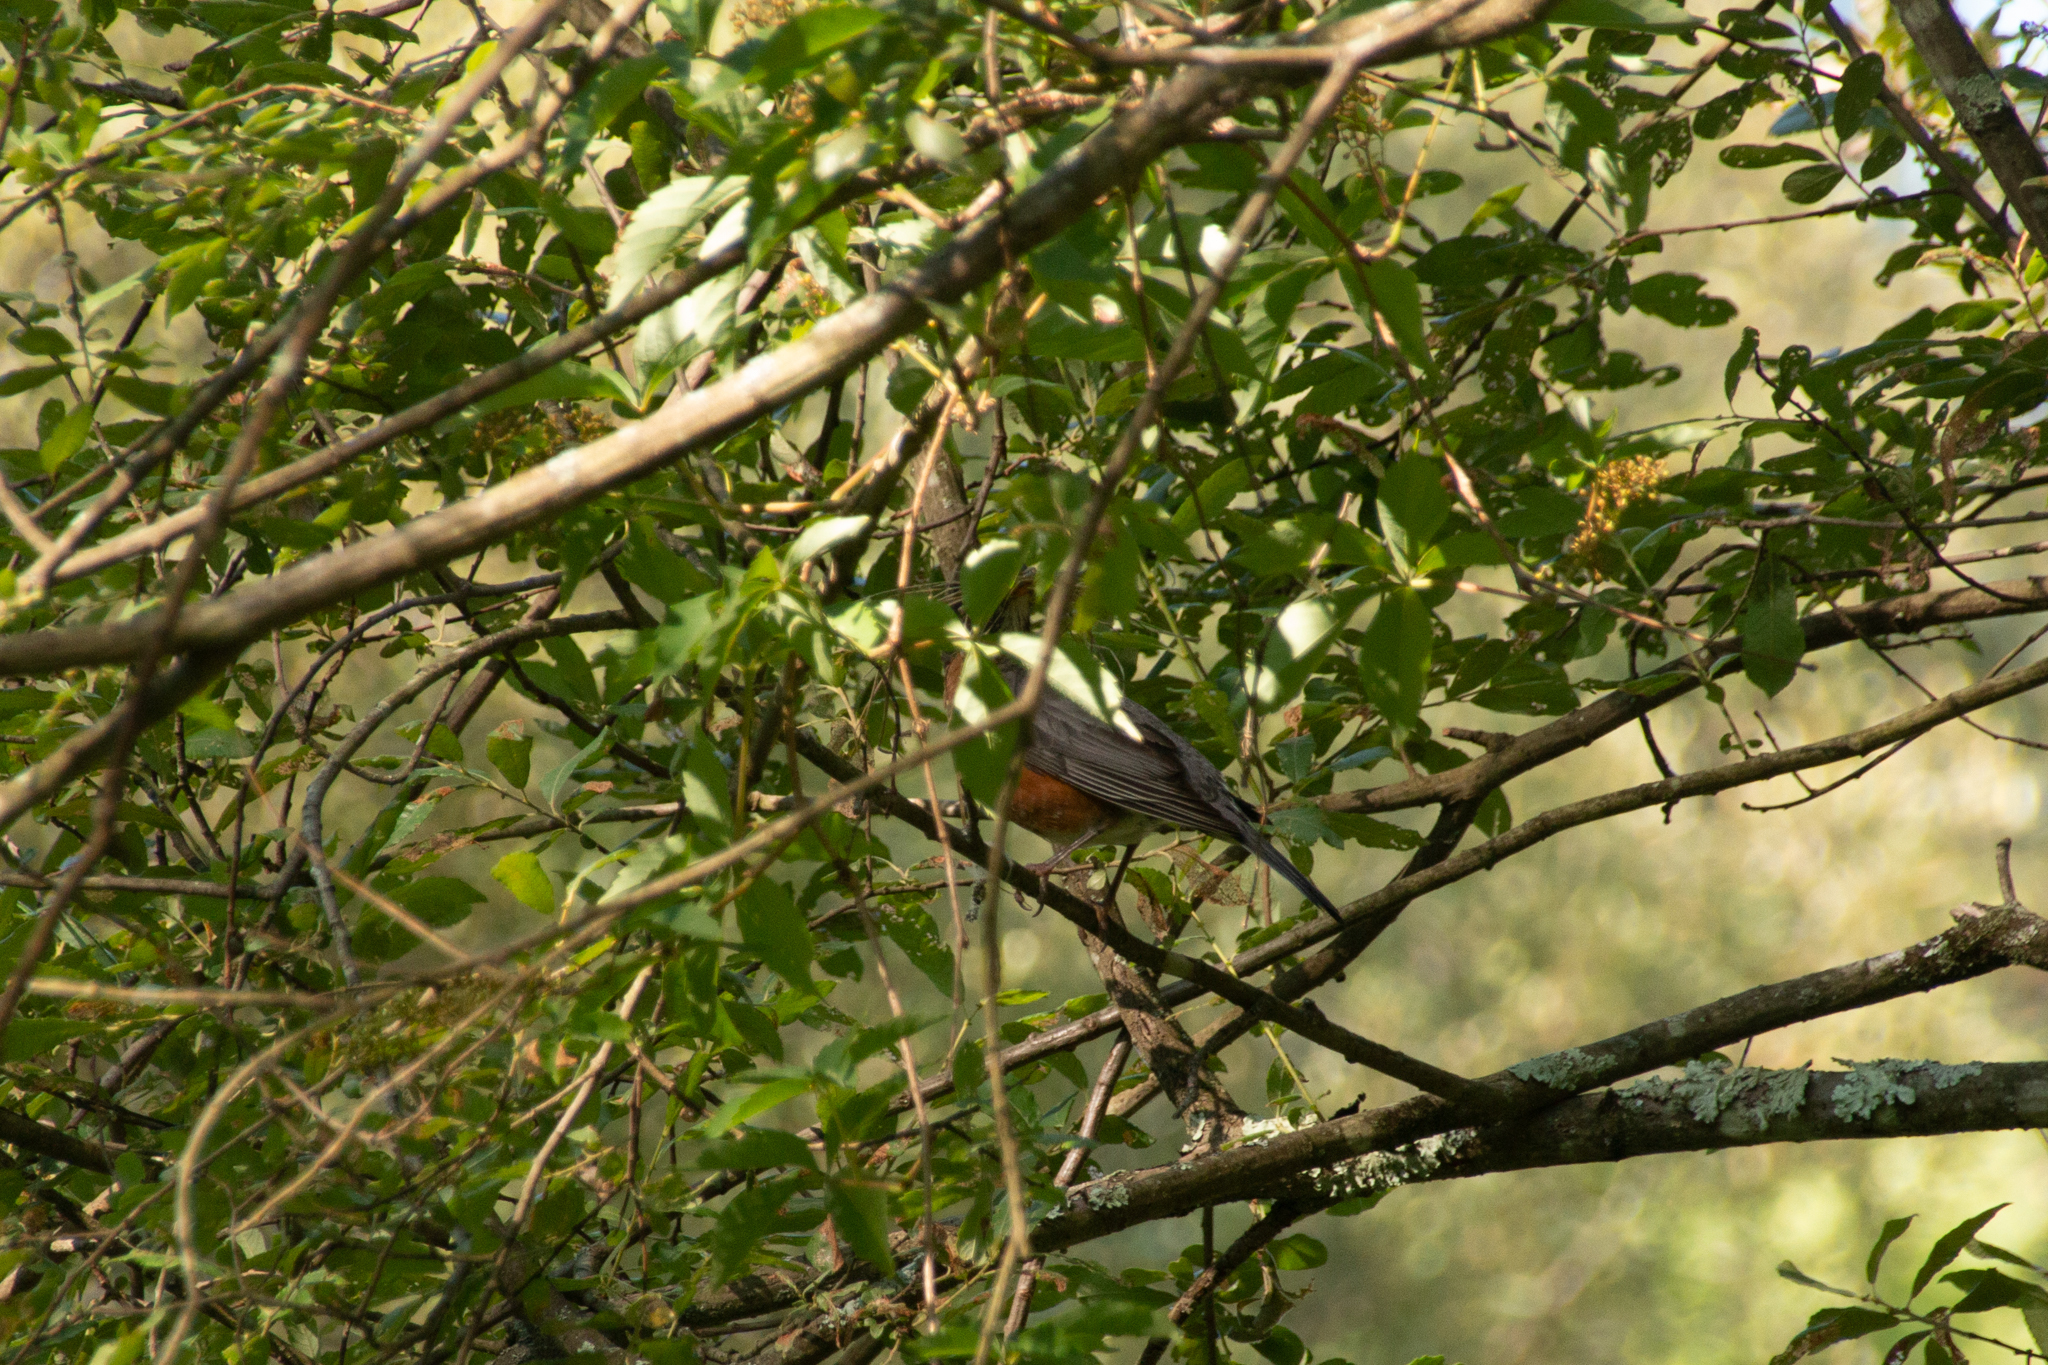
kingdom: Animalia
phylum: Chordata
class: Aves
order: Passeriformes
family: Turdidae
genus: Turdus
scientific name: Turdus migratorius
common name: American robin
